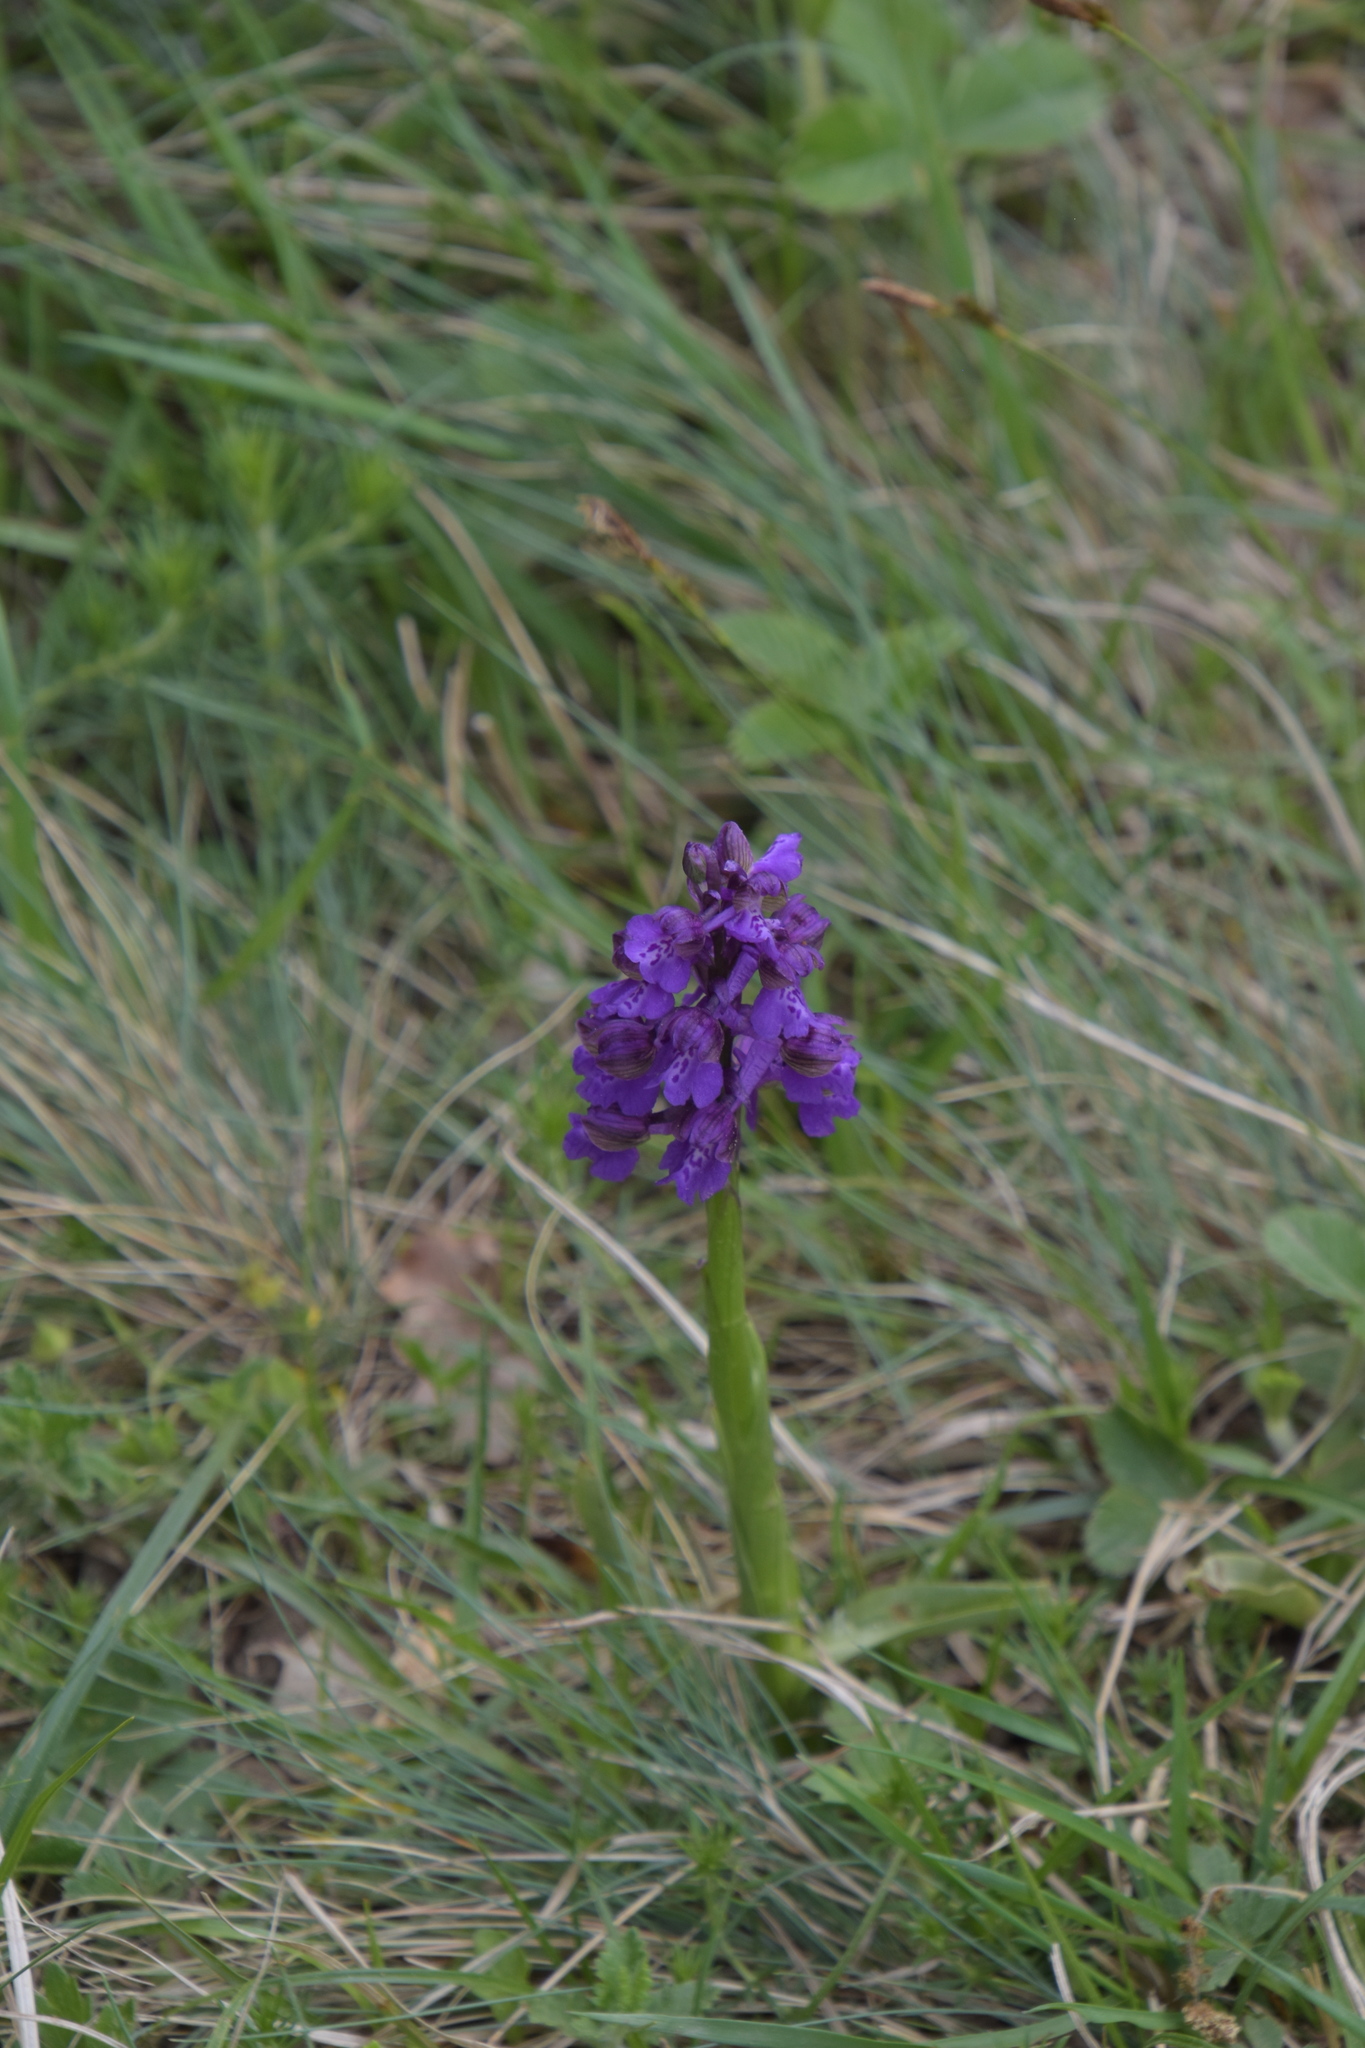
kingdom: Plantae
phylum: Tracheophyta
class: Liliopsida
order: Asparagales
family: Orchidaceae
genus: Anacamptis
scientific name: Anacamptis morio
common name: Green-winged orchid
